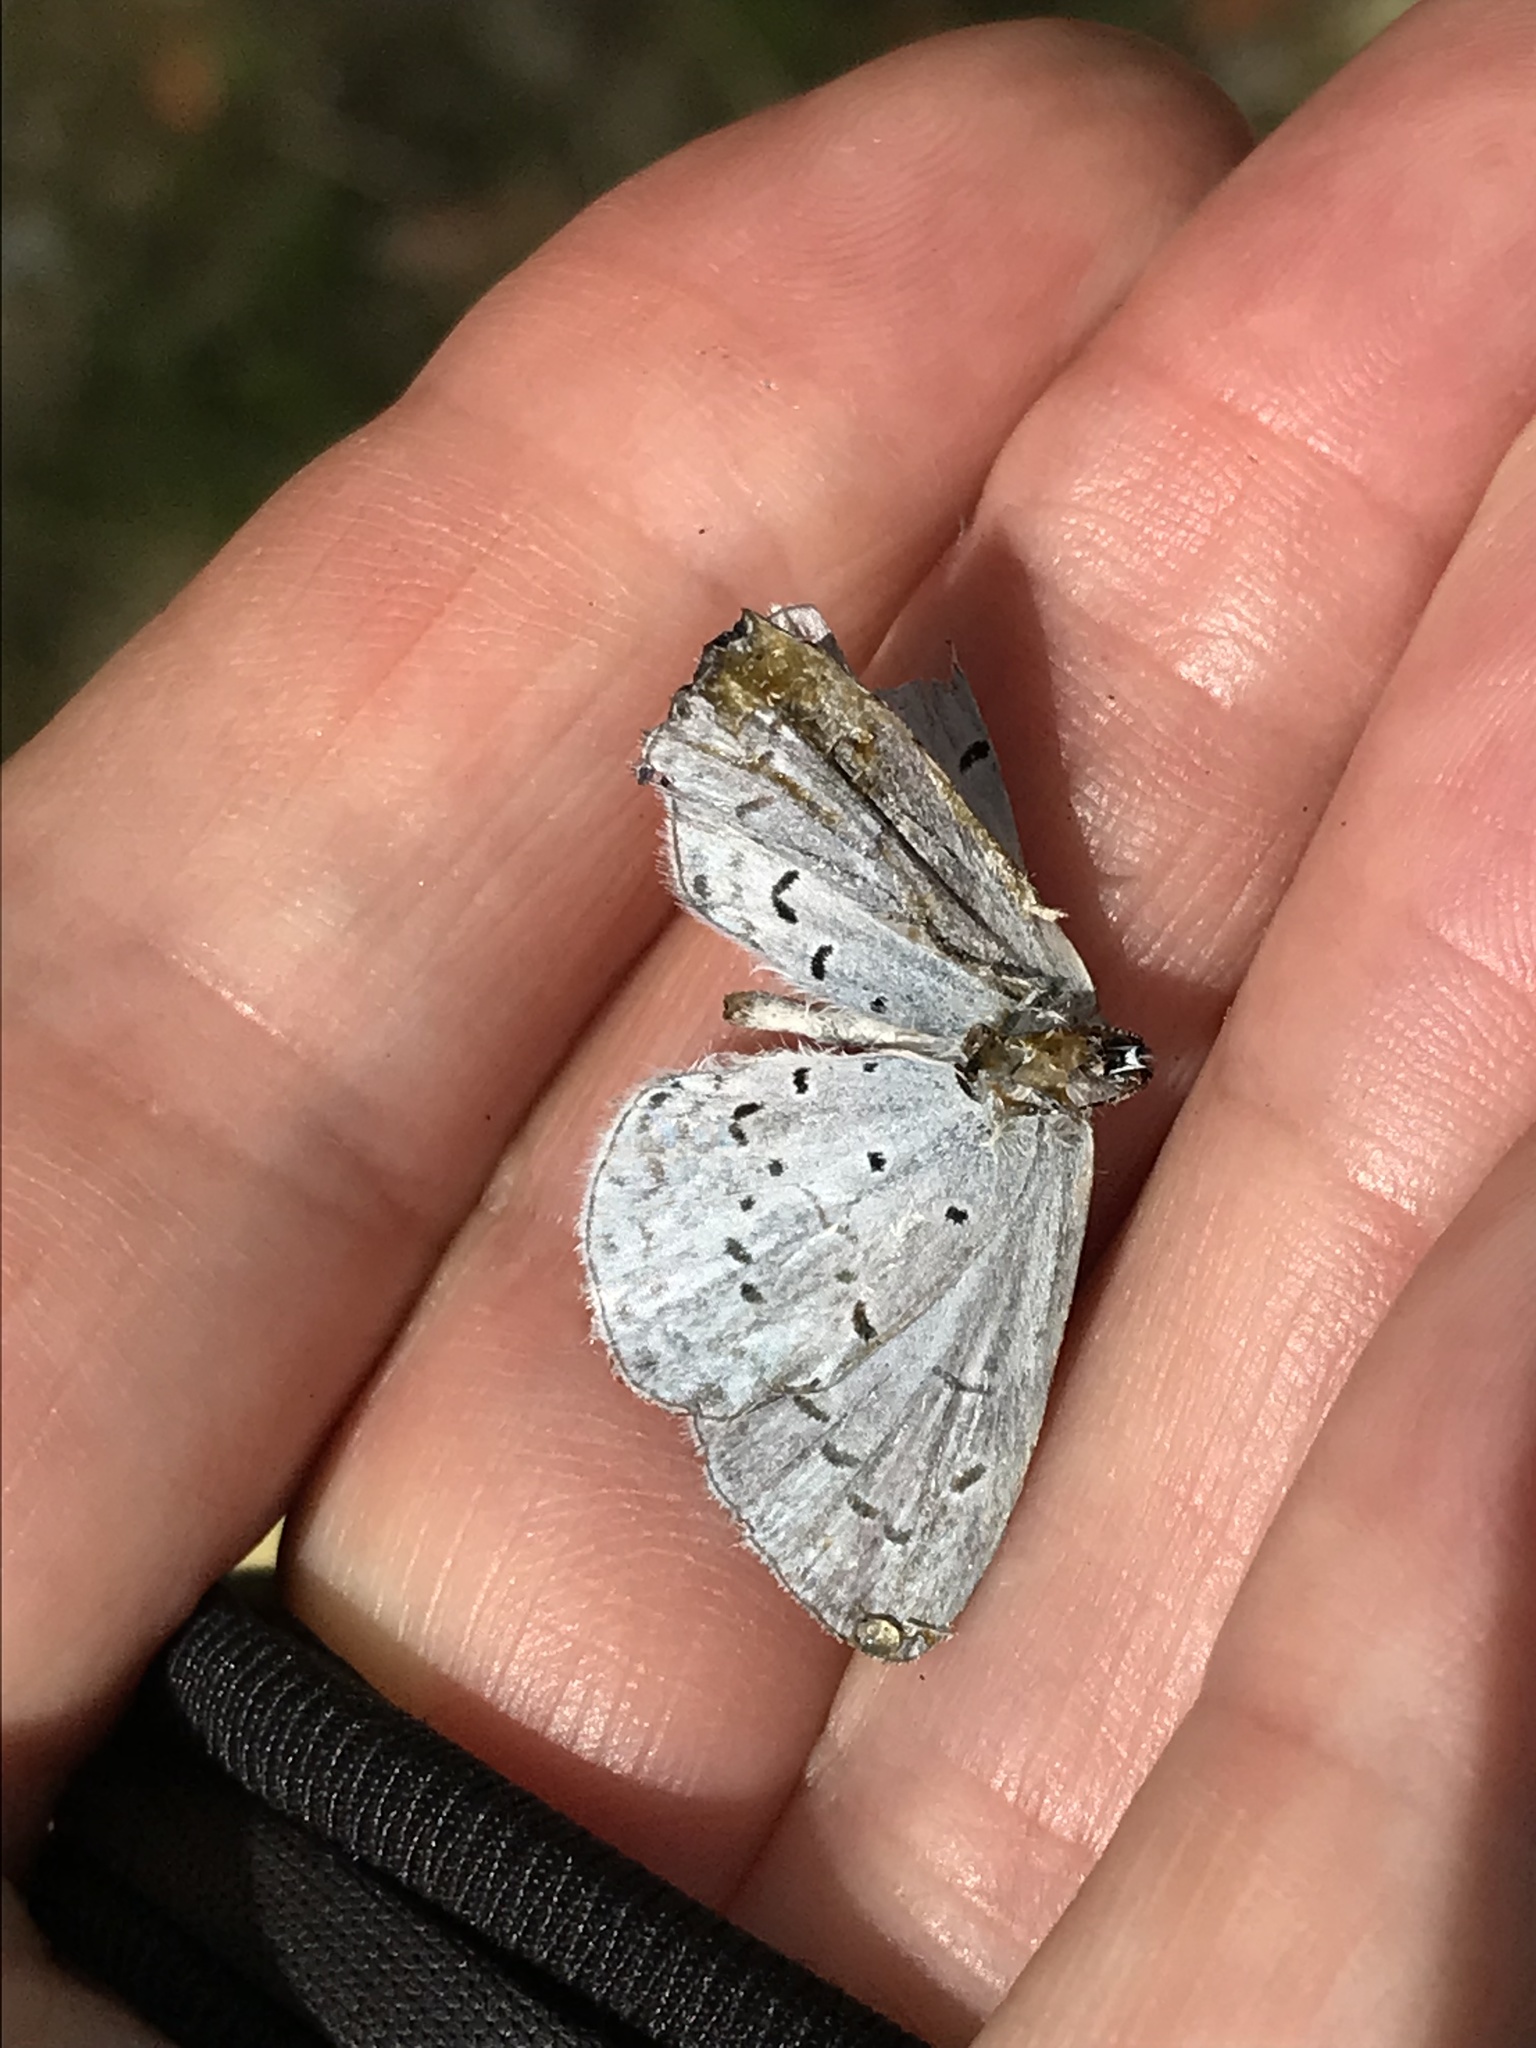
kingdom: Animalia
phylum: Arthropoda
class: Insecta
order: Lepidoptera
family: Lycaenidae
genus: Celastrina
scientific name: Celastrina ladon
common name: Spring azure
